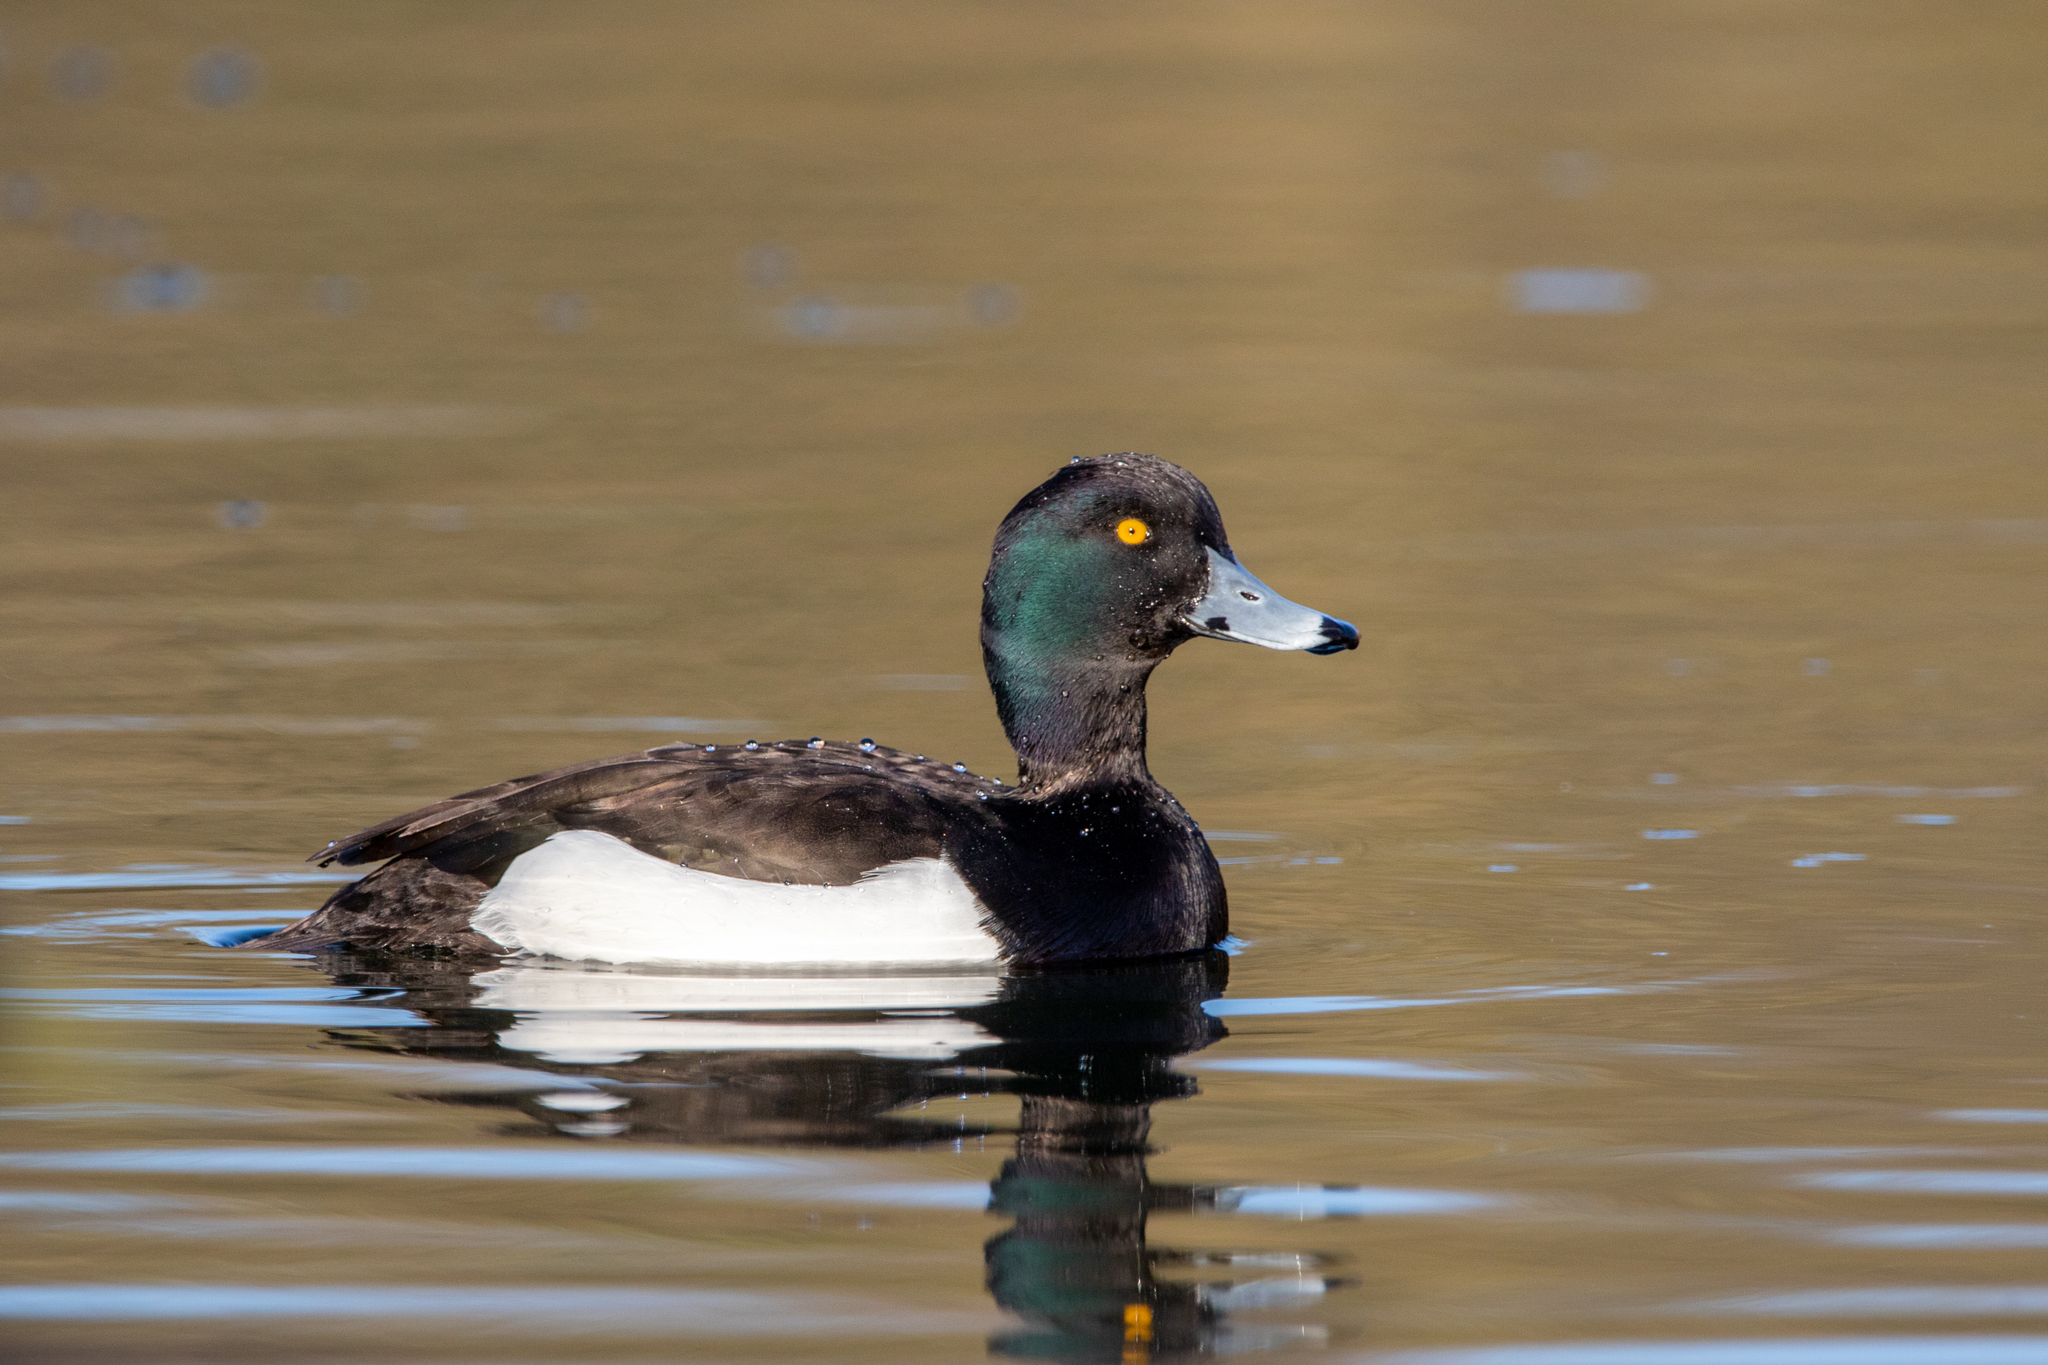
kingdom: Animalia
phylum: Chordata
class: Aves
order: Anseriformes
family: Anatidae
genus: Aythya
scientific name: Aythya fuligula
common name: Tufted duck
